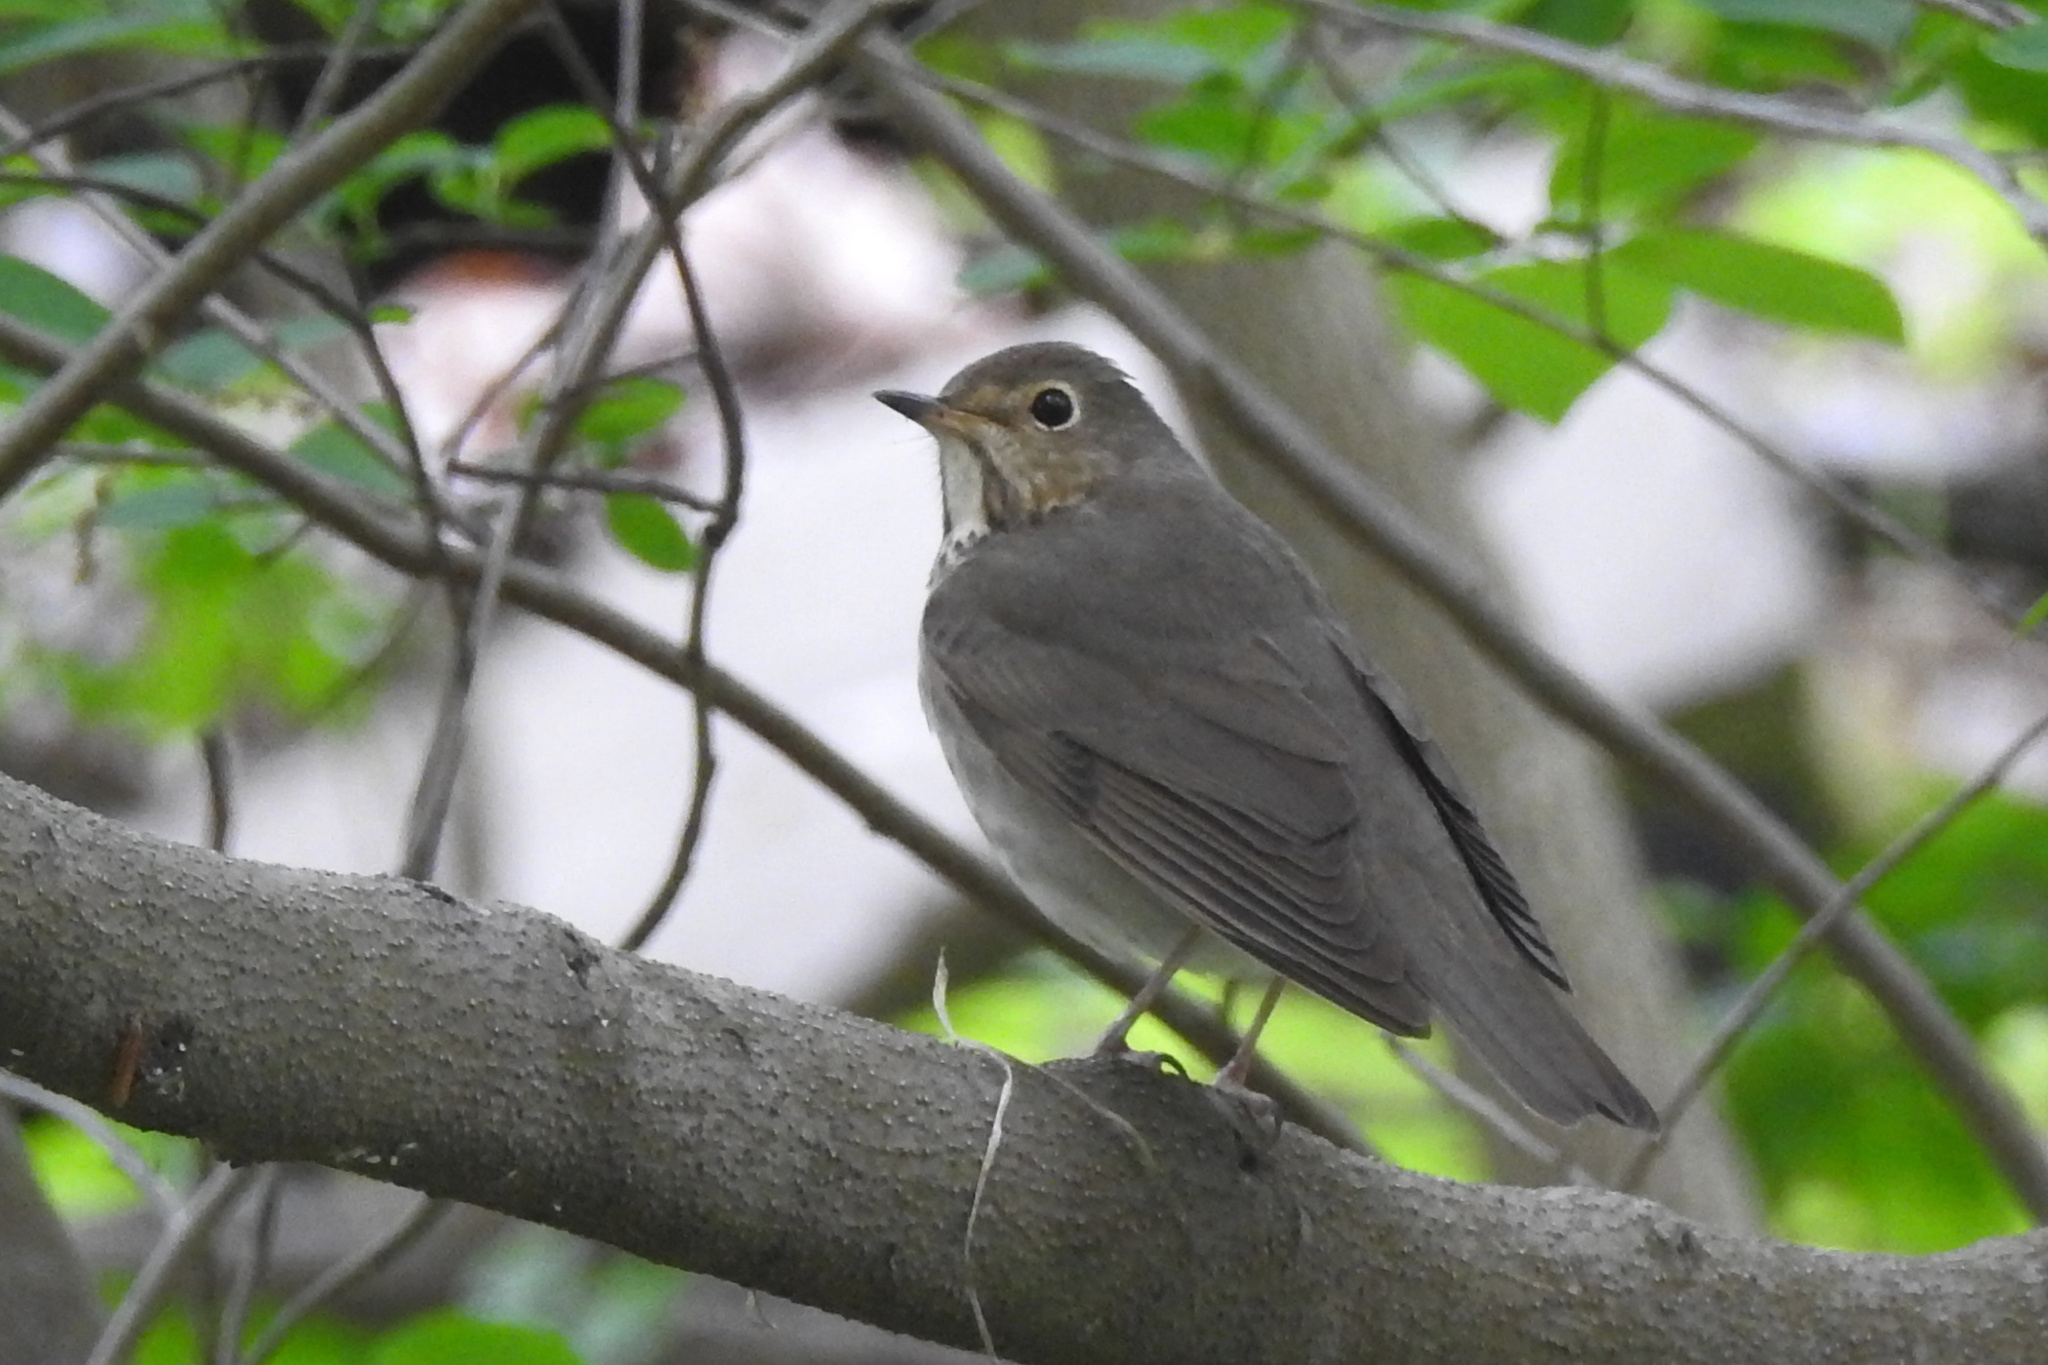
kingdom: Animalia
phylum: Chordata
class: Aves
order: Passeriformes
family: Turdidae
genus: Catharus
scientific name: Catharus ustulatus
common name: Swainson's thrush
